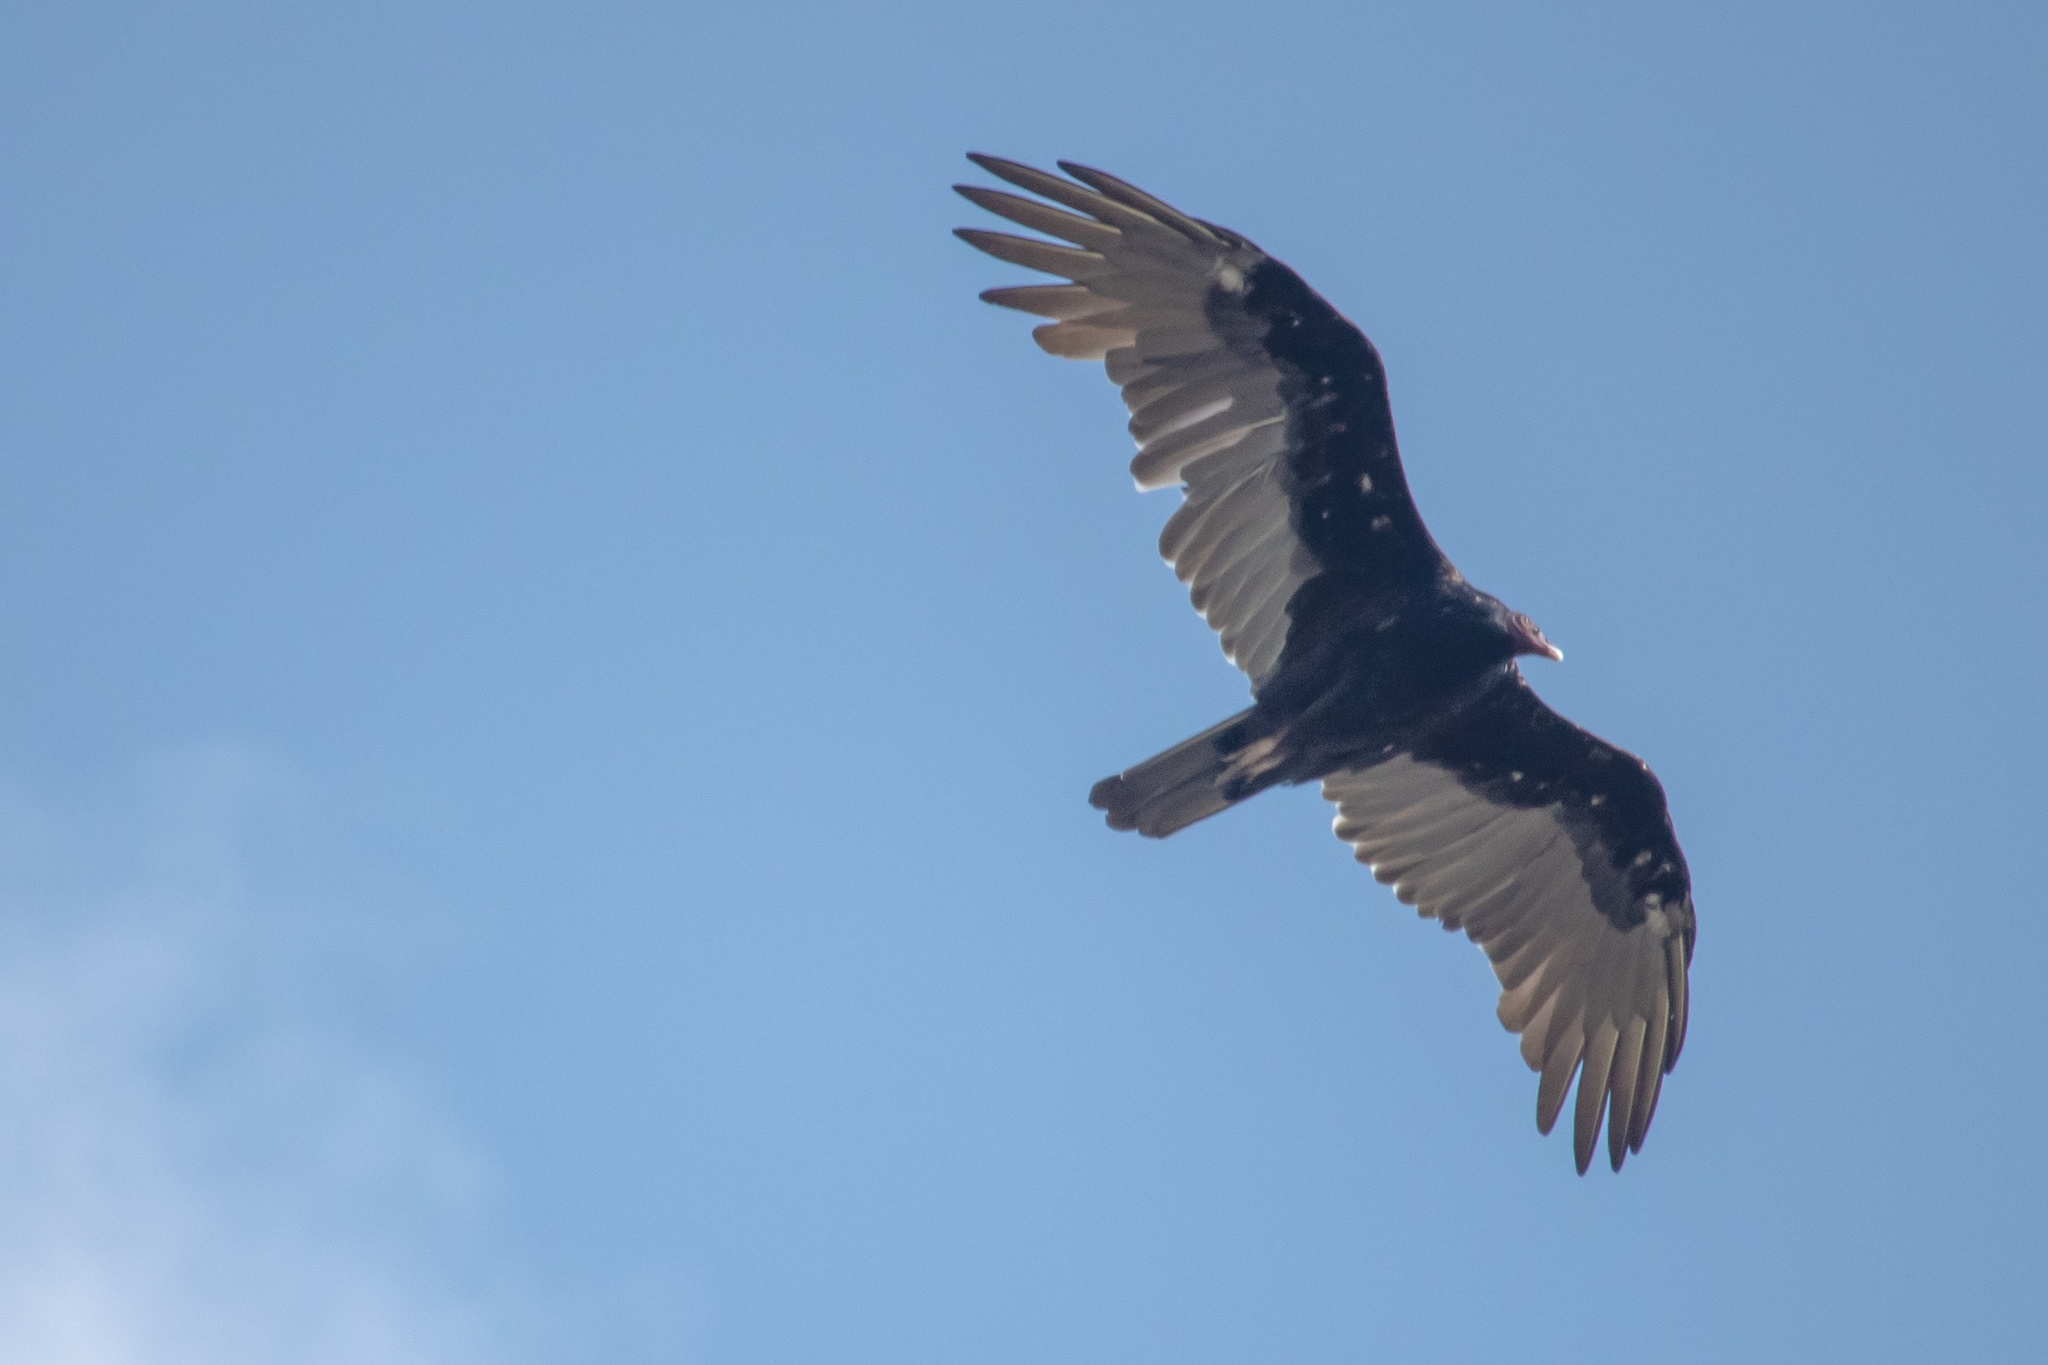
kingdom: Animalia
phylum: Chordata
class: Aves
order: Accipitriformes
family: Cathartidae
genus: Cathartes
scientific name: Cathartes aura
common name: Turkey vulture
